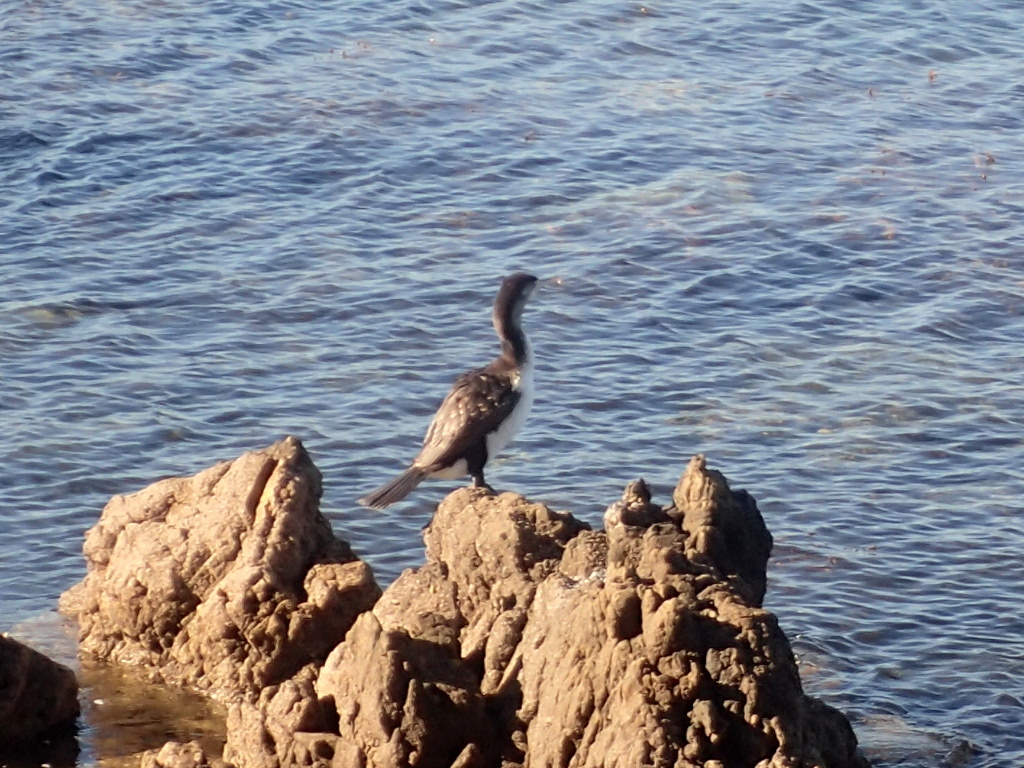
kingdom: Animalia
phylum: Chordata
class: Aves
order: Suliformes
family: Phalacrocoracidae
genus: Phalacrocorax
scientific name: Phalacrocorax varius
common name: Pied cormorant
